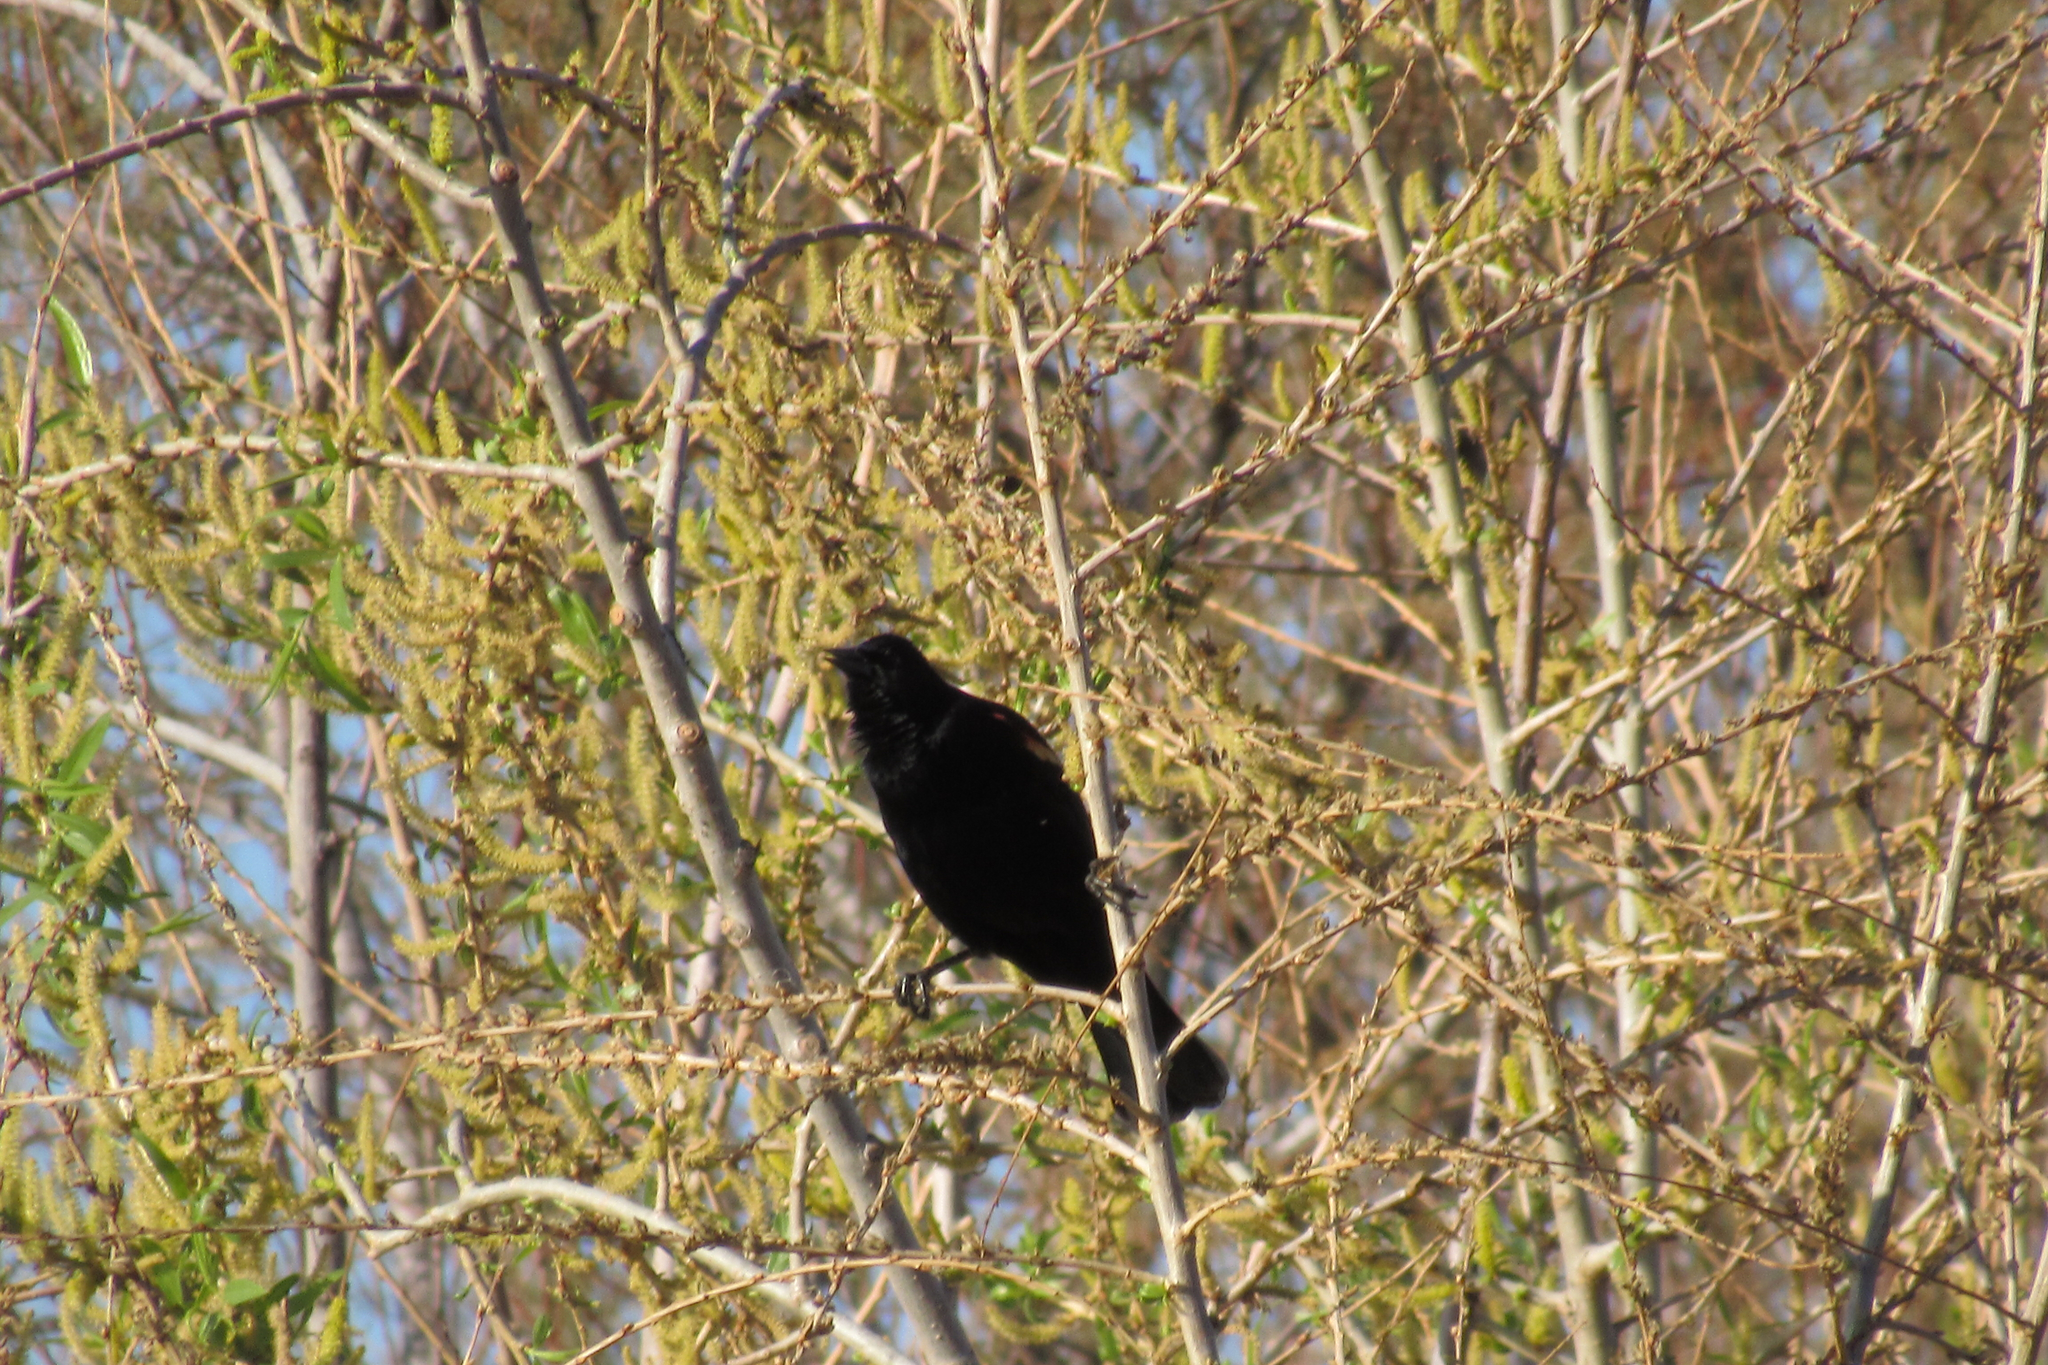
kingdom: Animalia
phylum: Chordata
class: Aves
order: Passeriformes
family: Icteridae
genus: Agelaius
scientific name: Agelaius phoeniceus
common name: Red-winged blackbird
